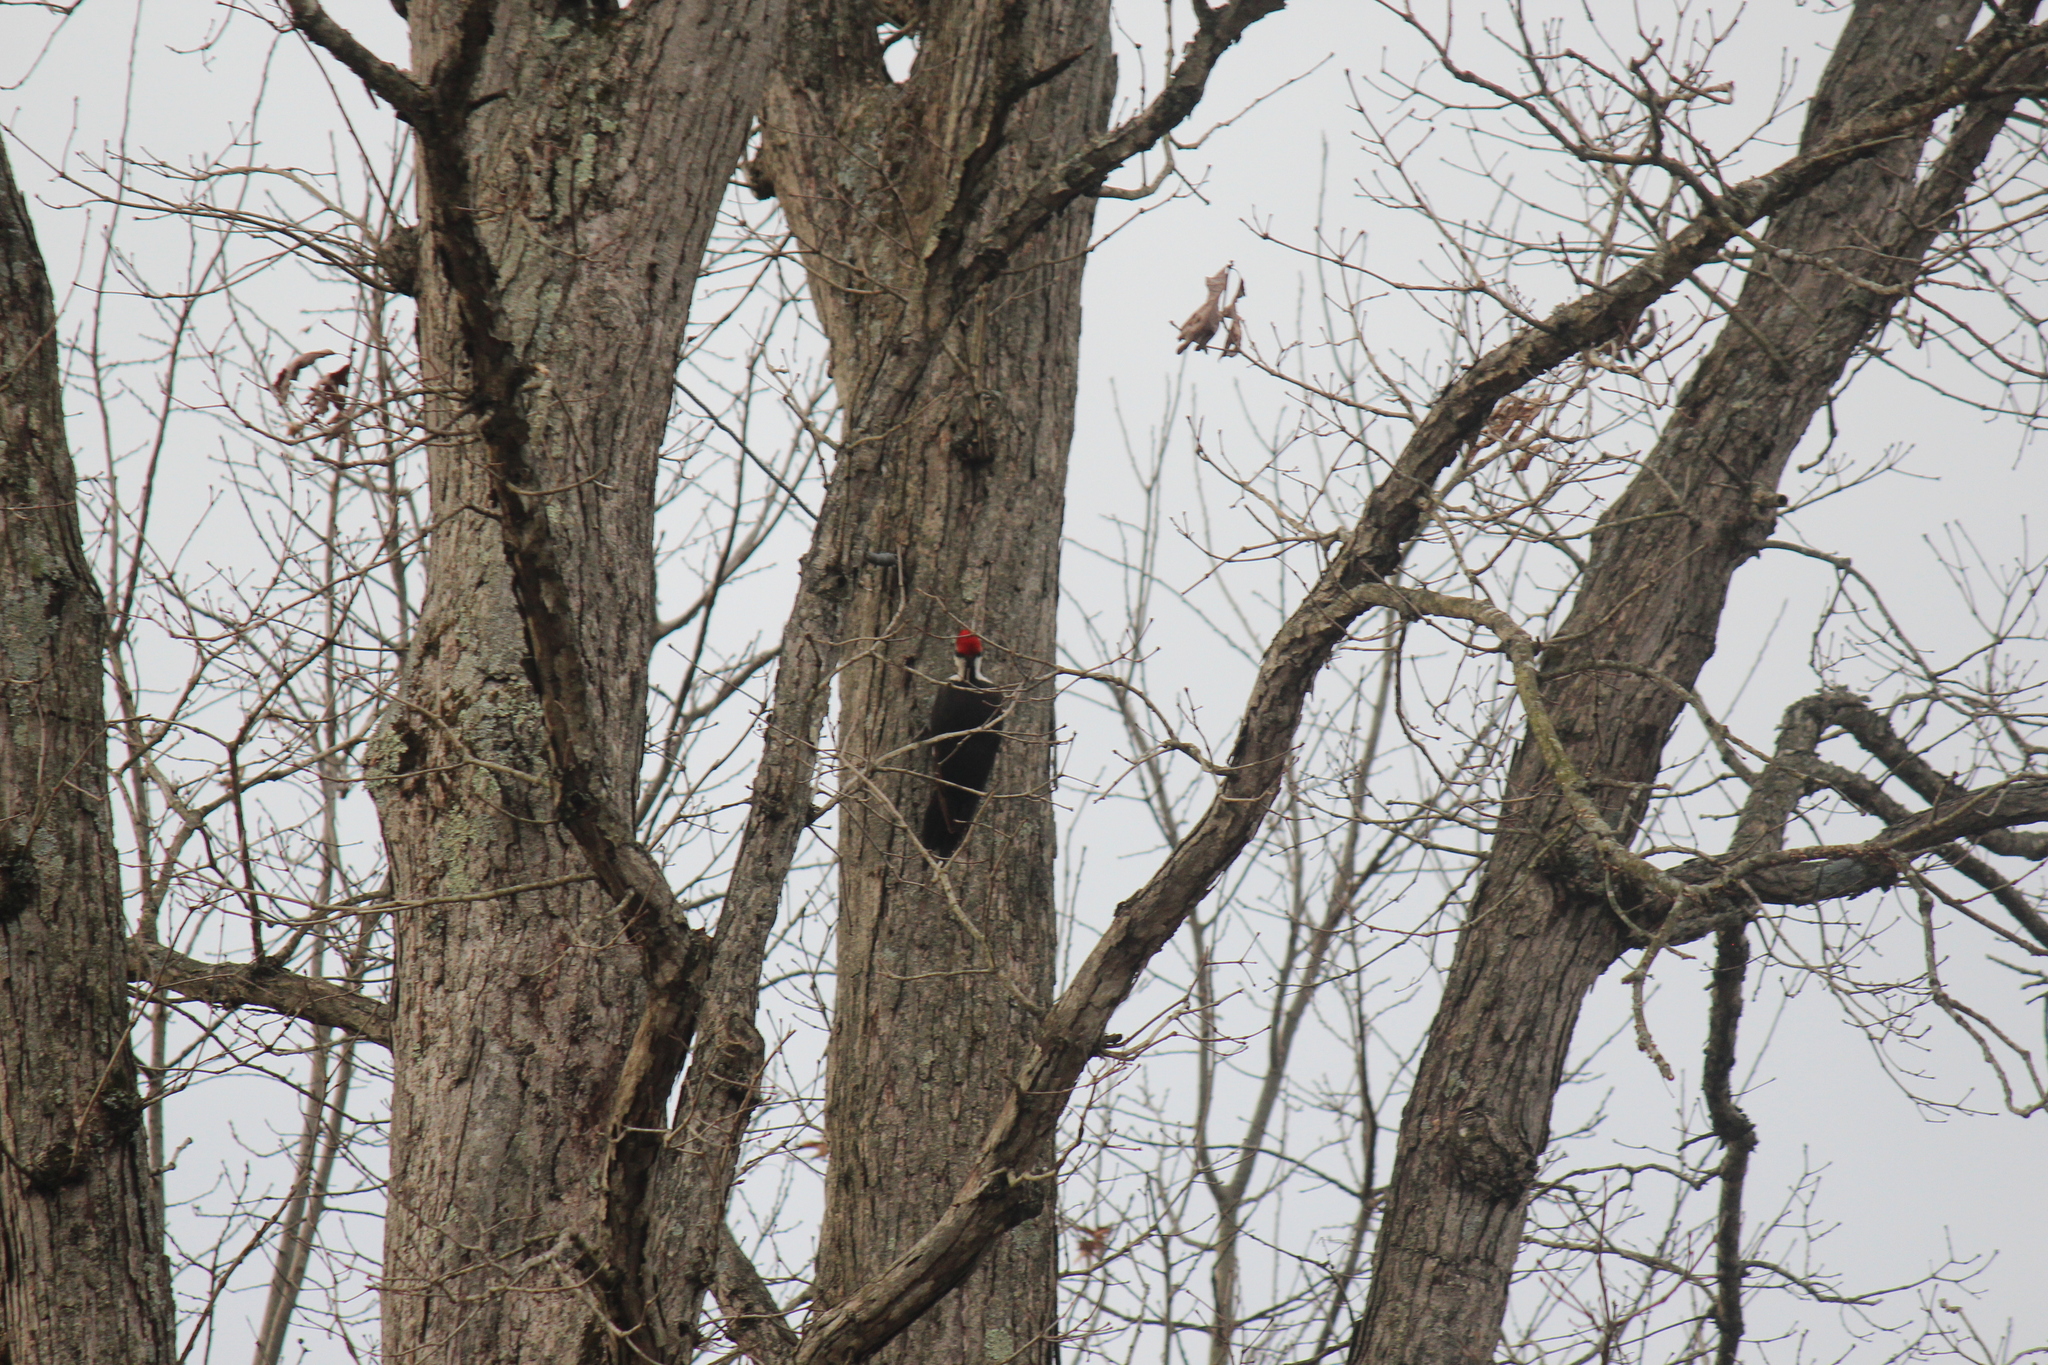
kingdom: Animalia
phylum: Chordata
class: Aves
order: Piciformes
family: Picidae
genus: Dryocopus
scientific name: Dryocopus pileatus
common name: Pileated woodpecker
